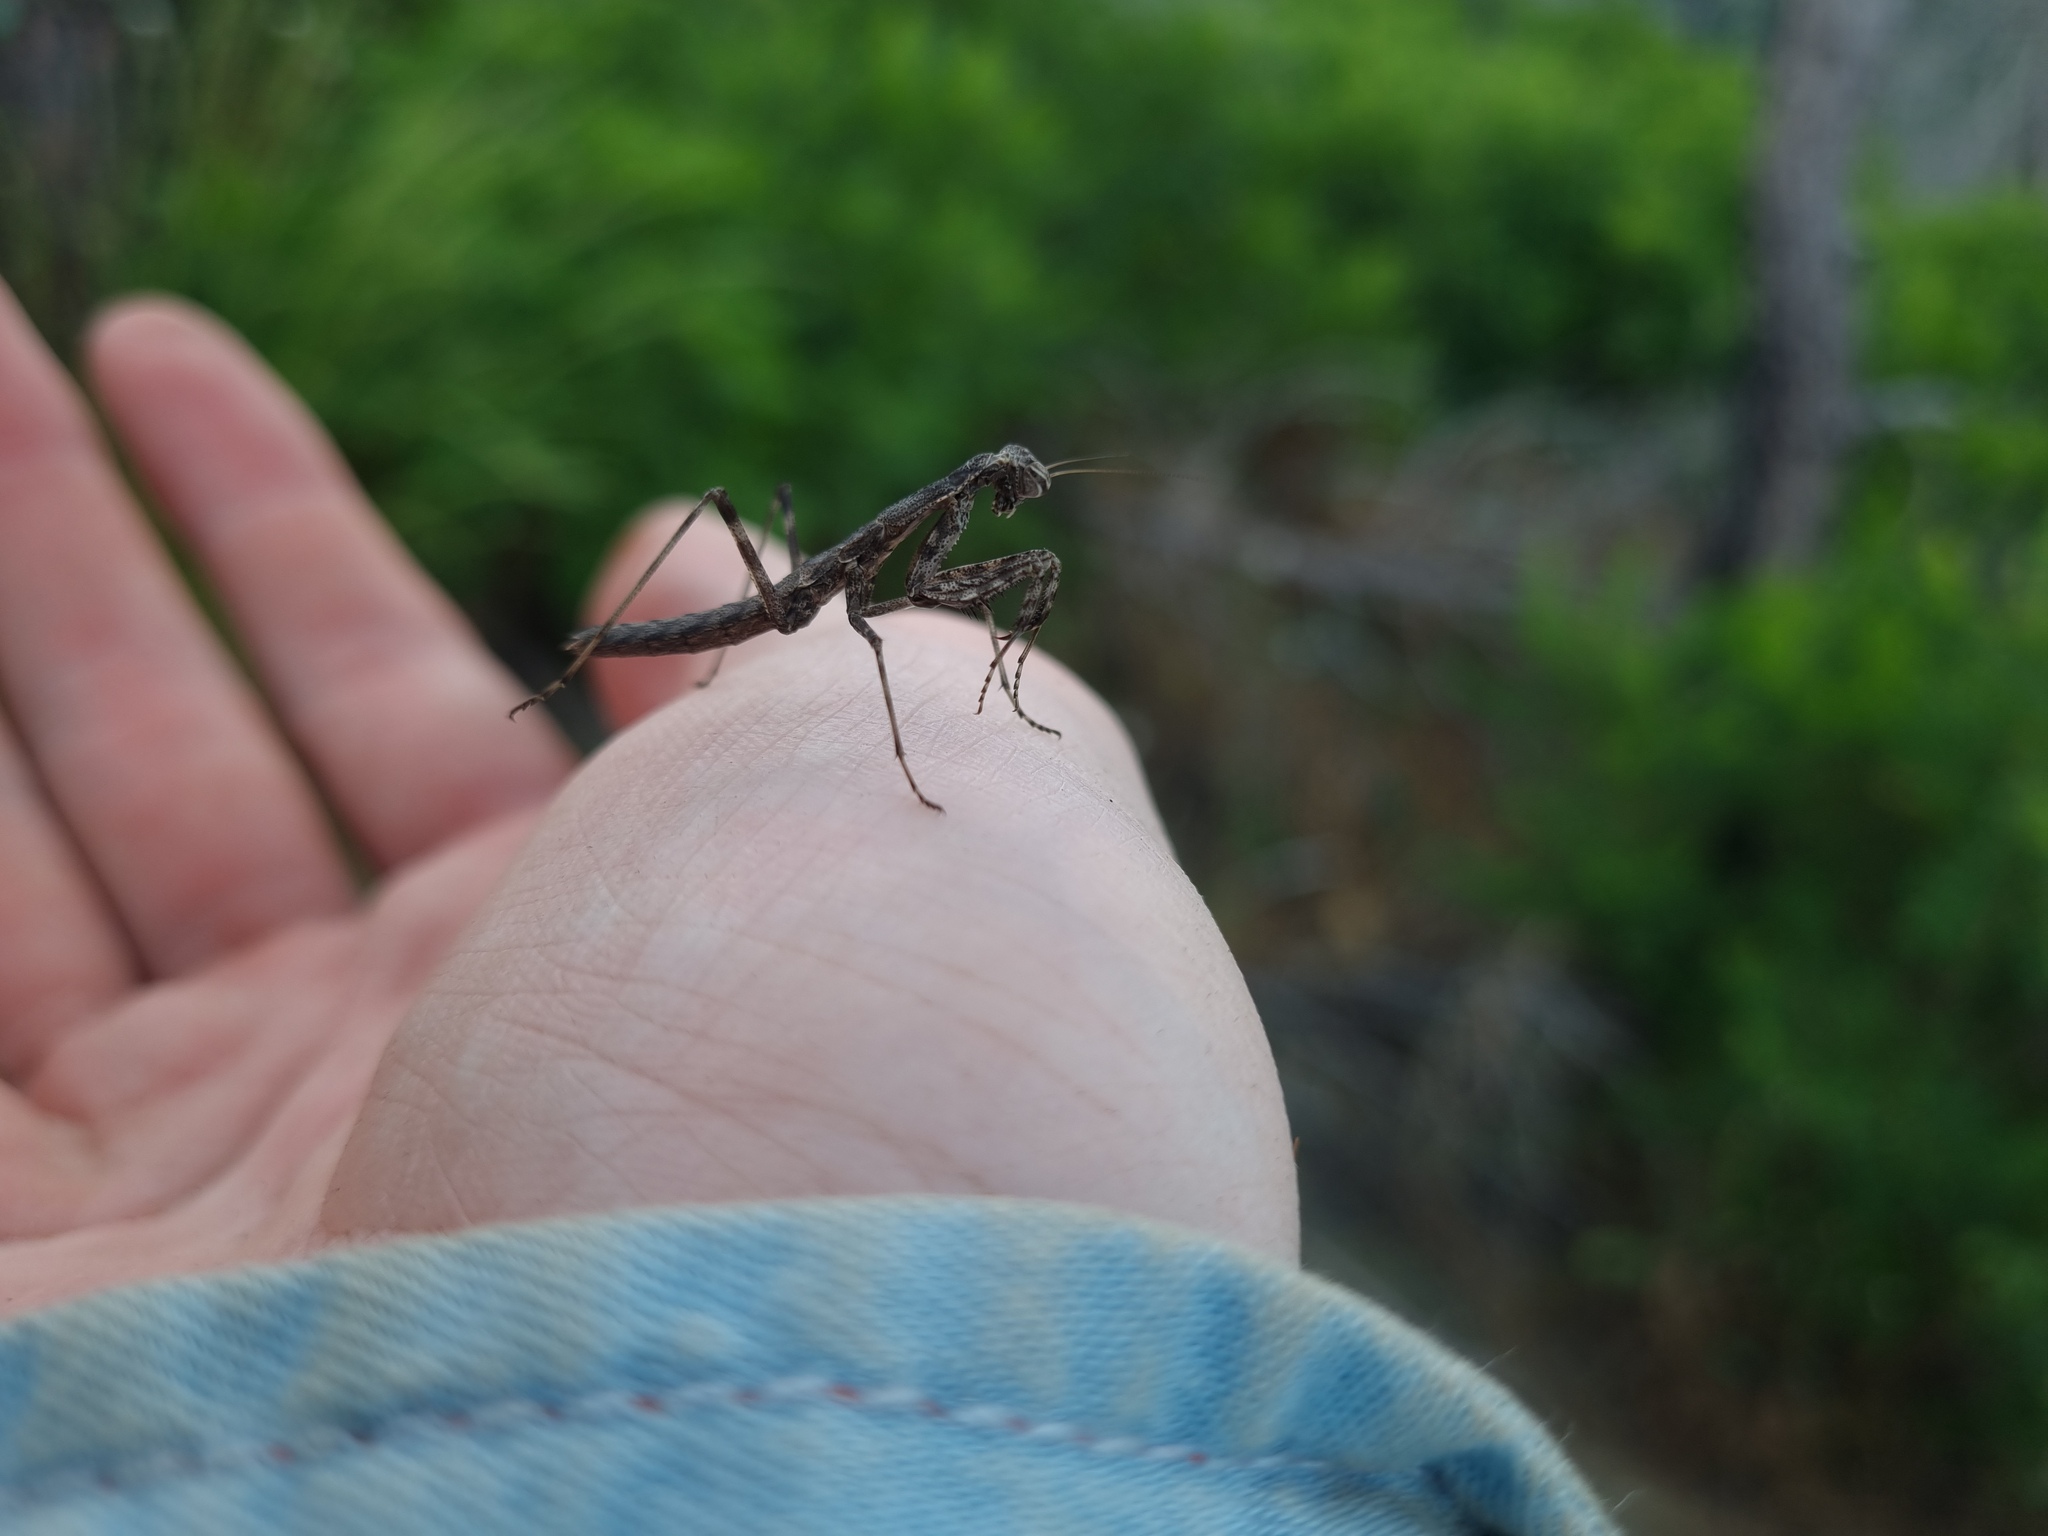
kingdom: Animalia
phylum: Arthropoda
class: Insecta
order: Mantodea
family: Rivetinidae
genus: Bolivaria
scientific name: Bolivaria brachyptera
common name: Bolivar's short winged mantis
